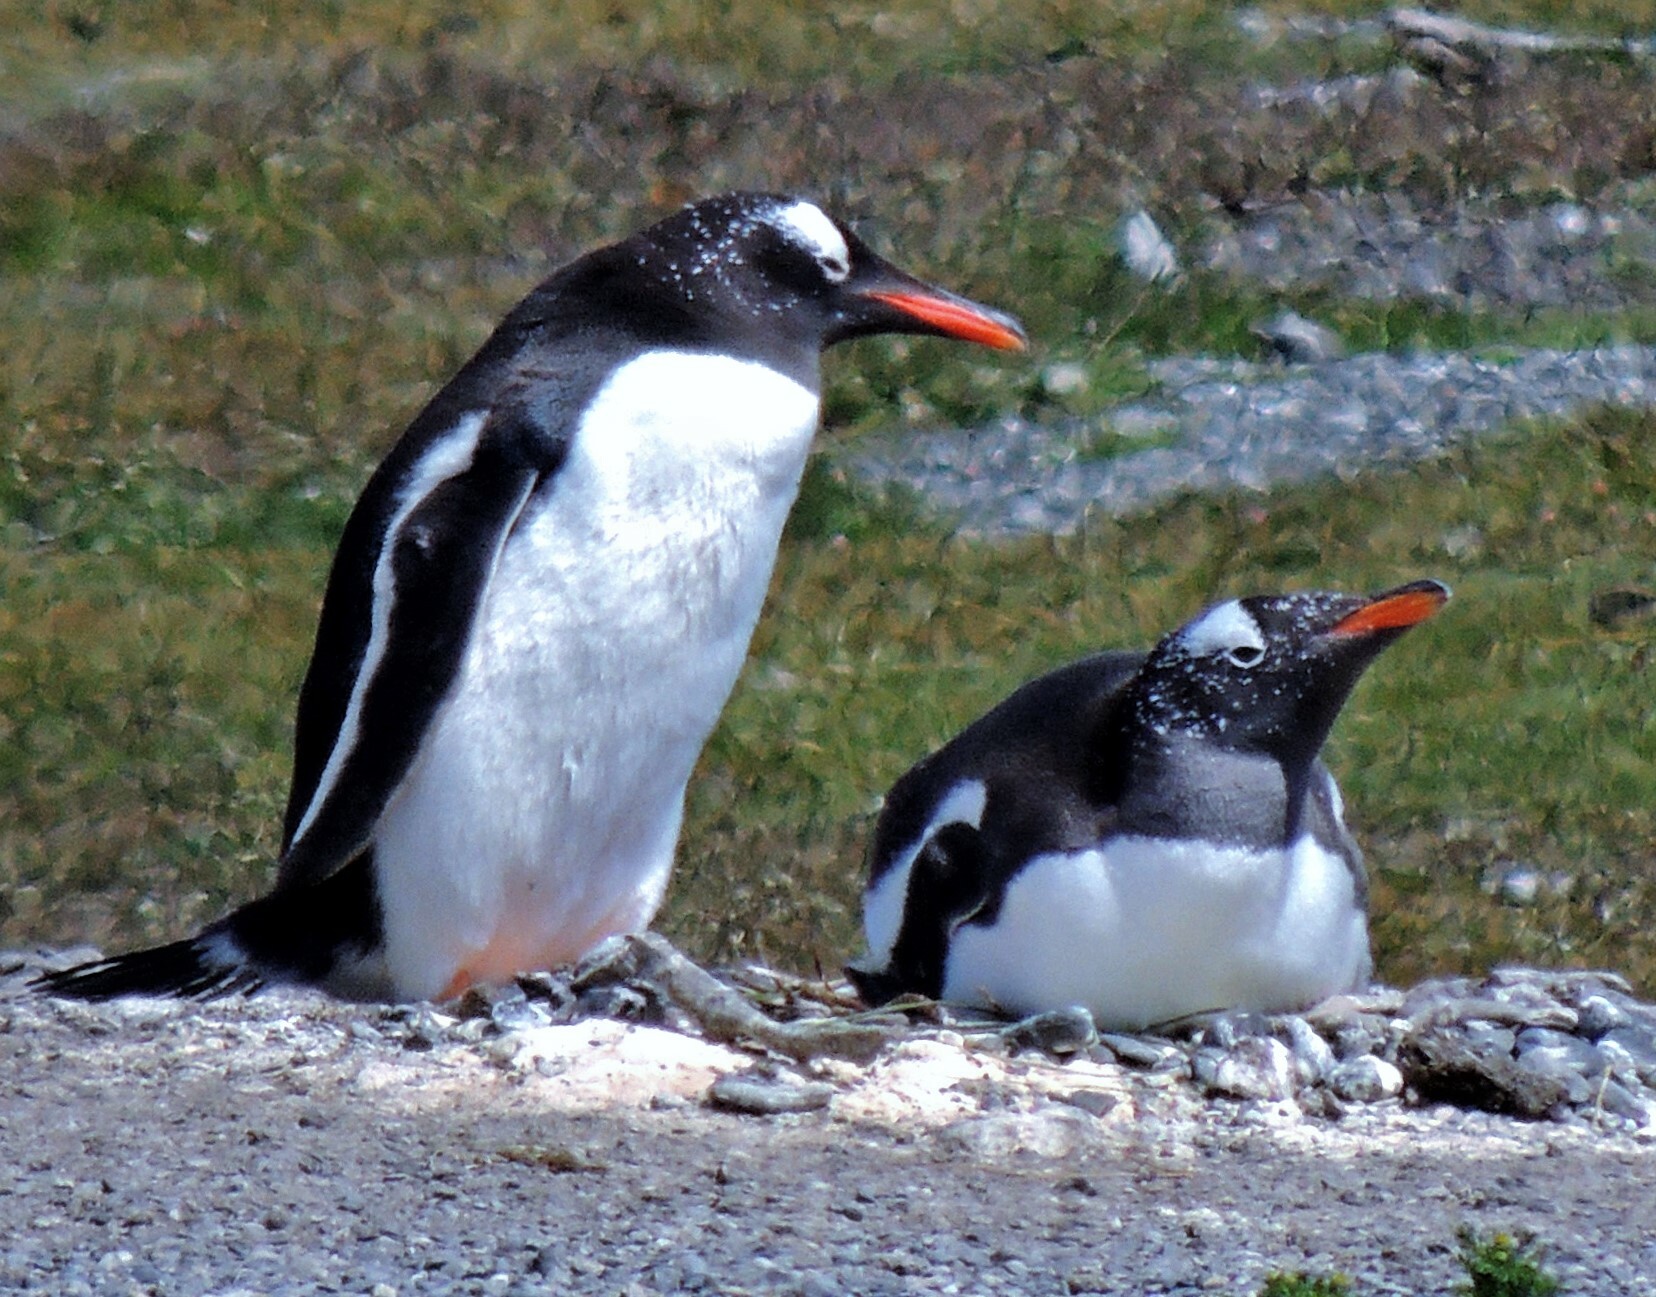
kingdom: Animalia
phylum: Chordata
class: Aves
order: Sphenisciformes
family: Spheniscidae
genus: Pygoscelis
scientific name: Pygoscelis papua
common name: Gentoo penguin
